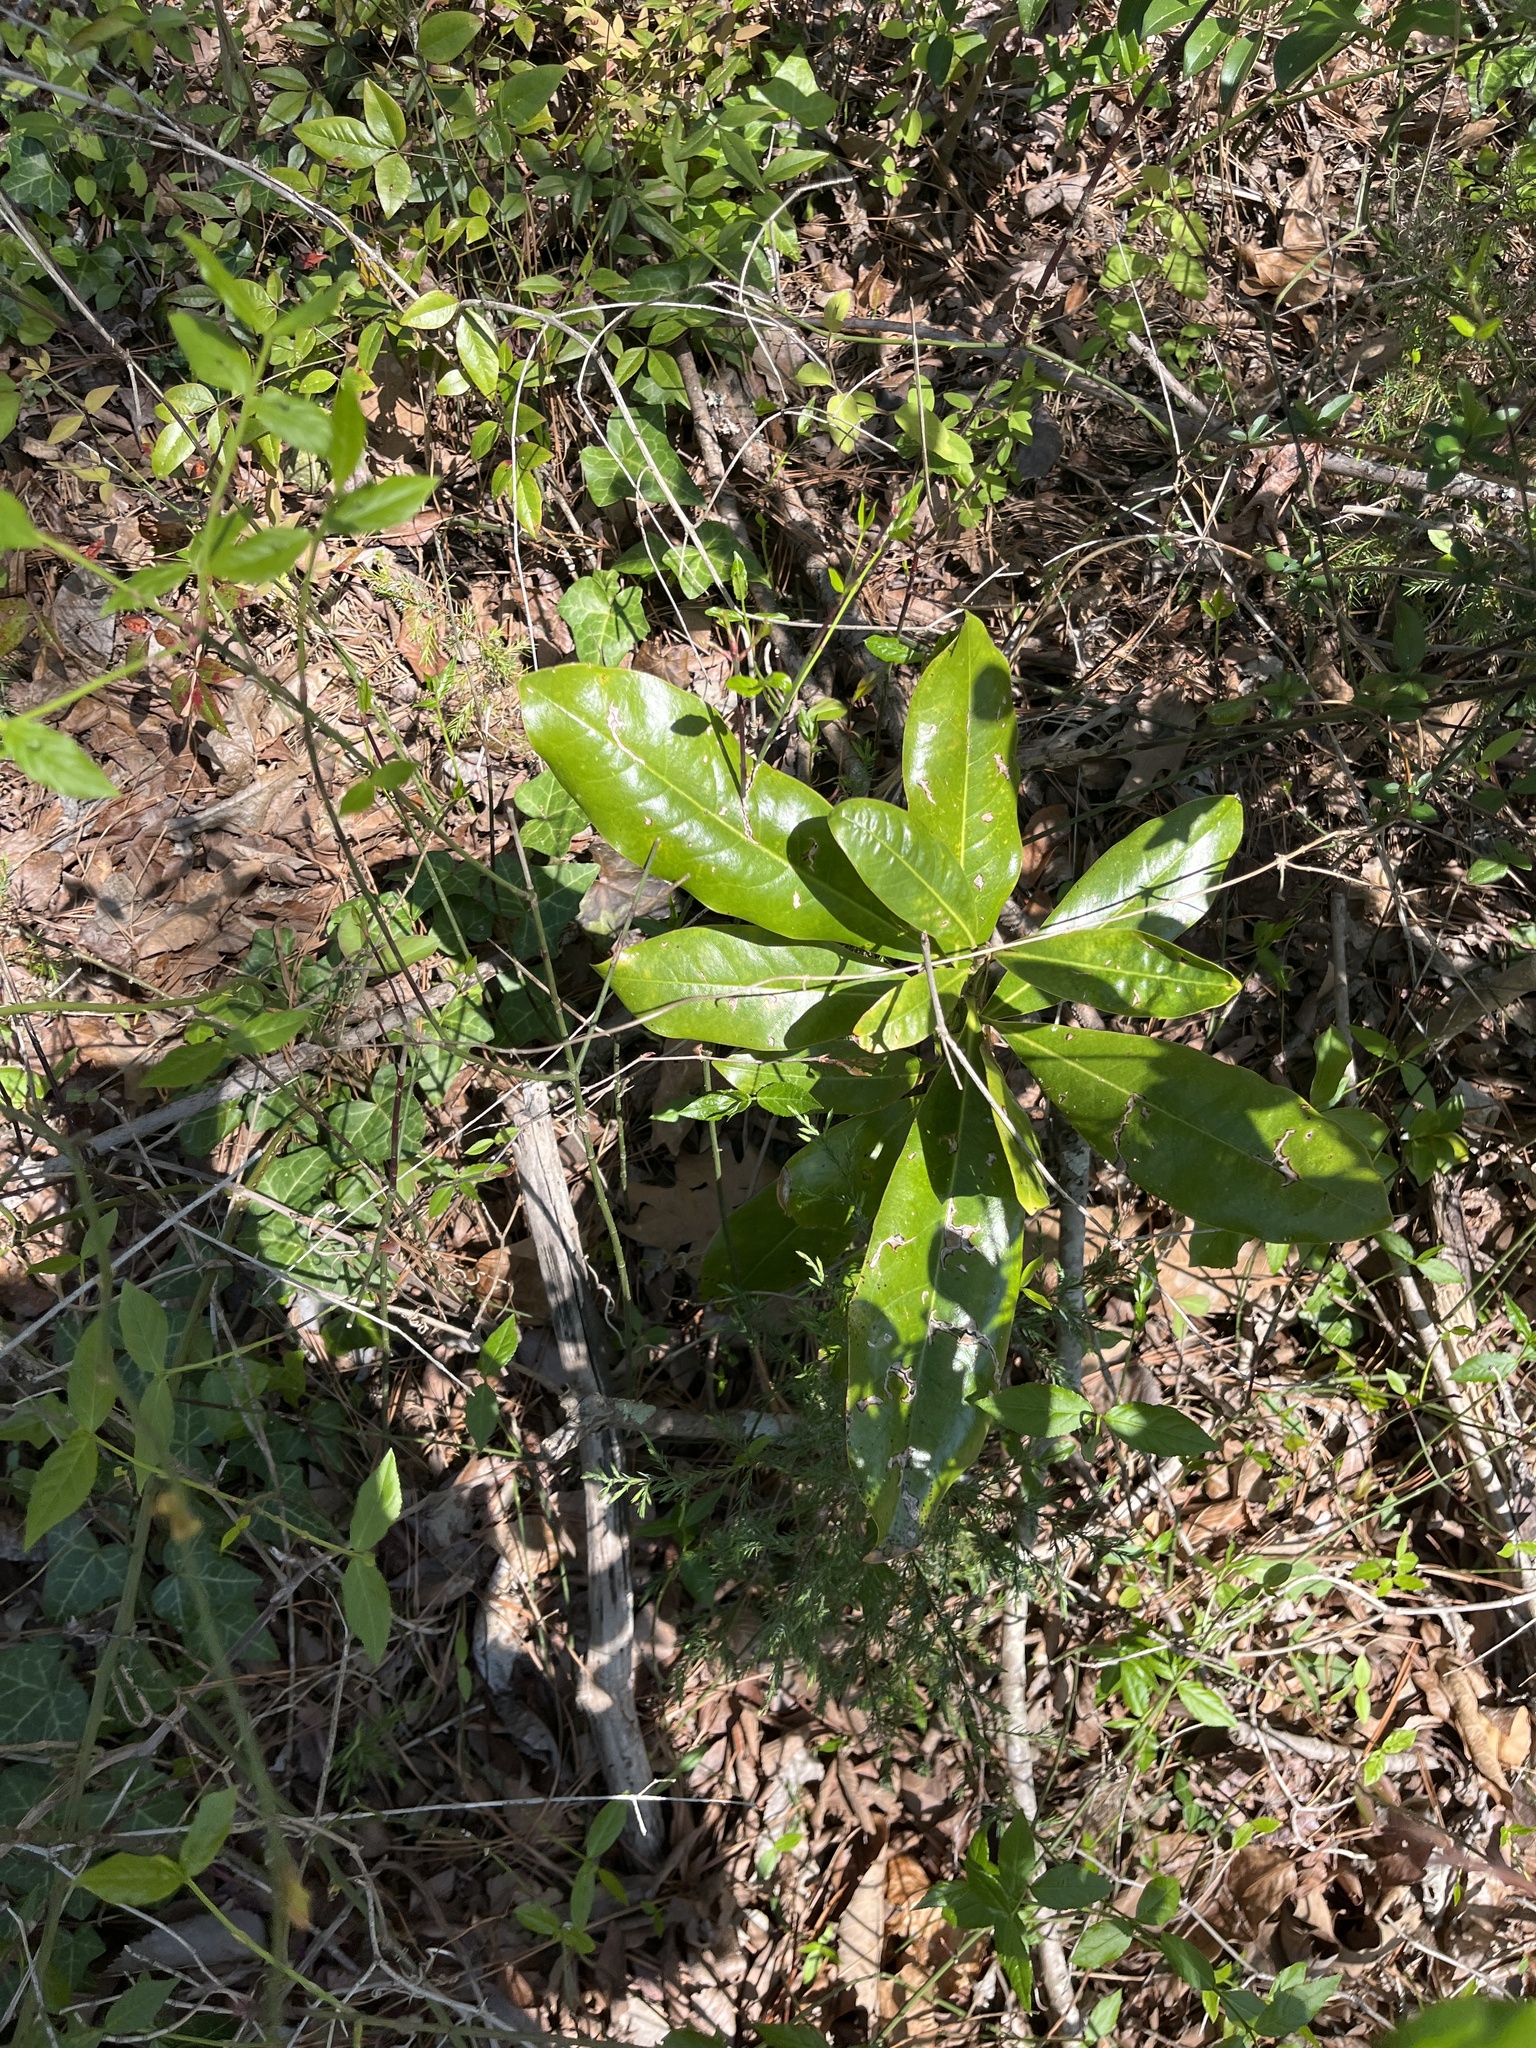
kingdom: Plantae
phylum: Tracheophyta
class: Magnoliopsida
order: Magnoliales
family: Magnoliaceae
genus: Magnolia
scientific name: Magnolia grandiflora
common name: Southern magnolia
